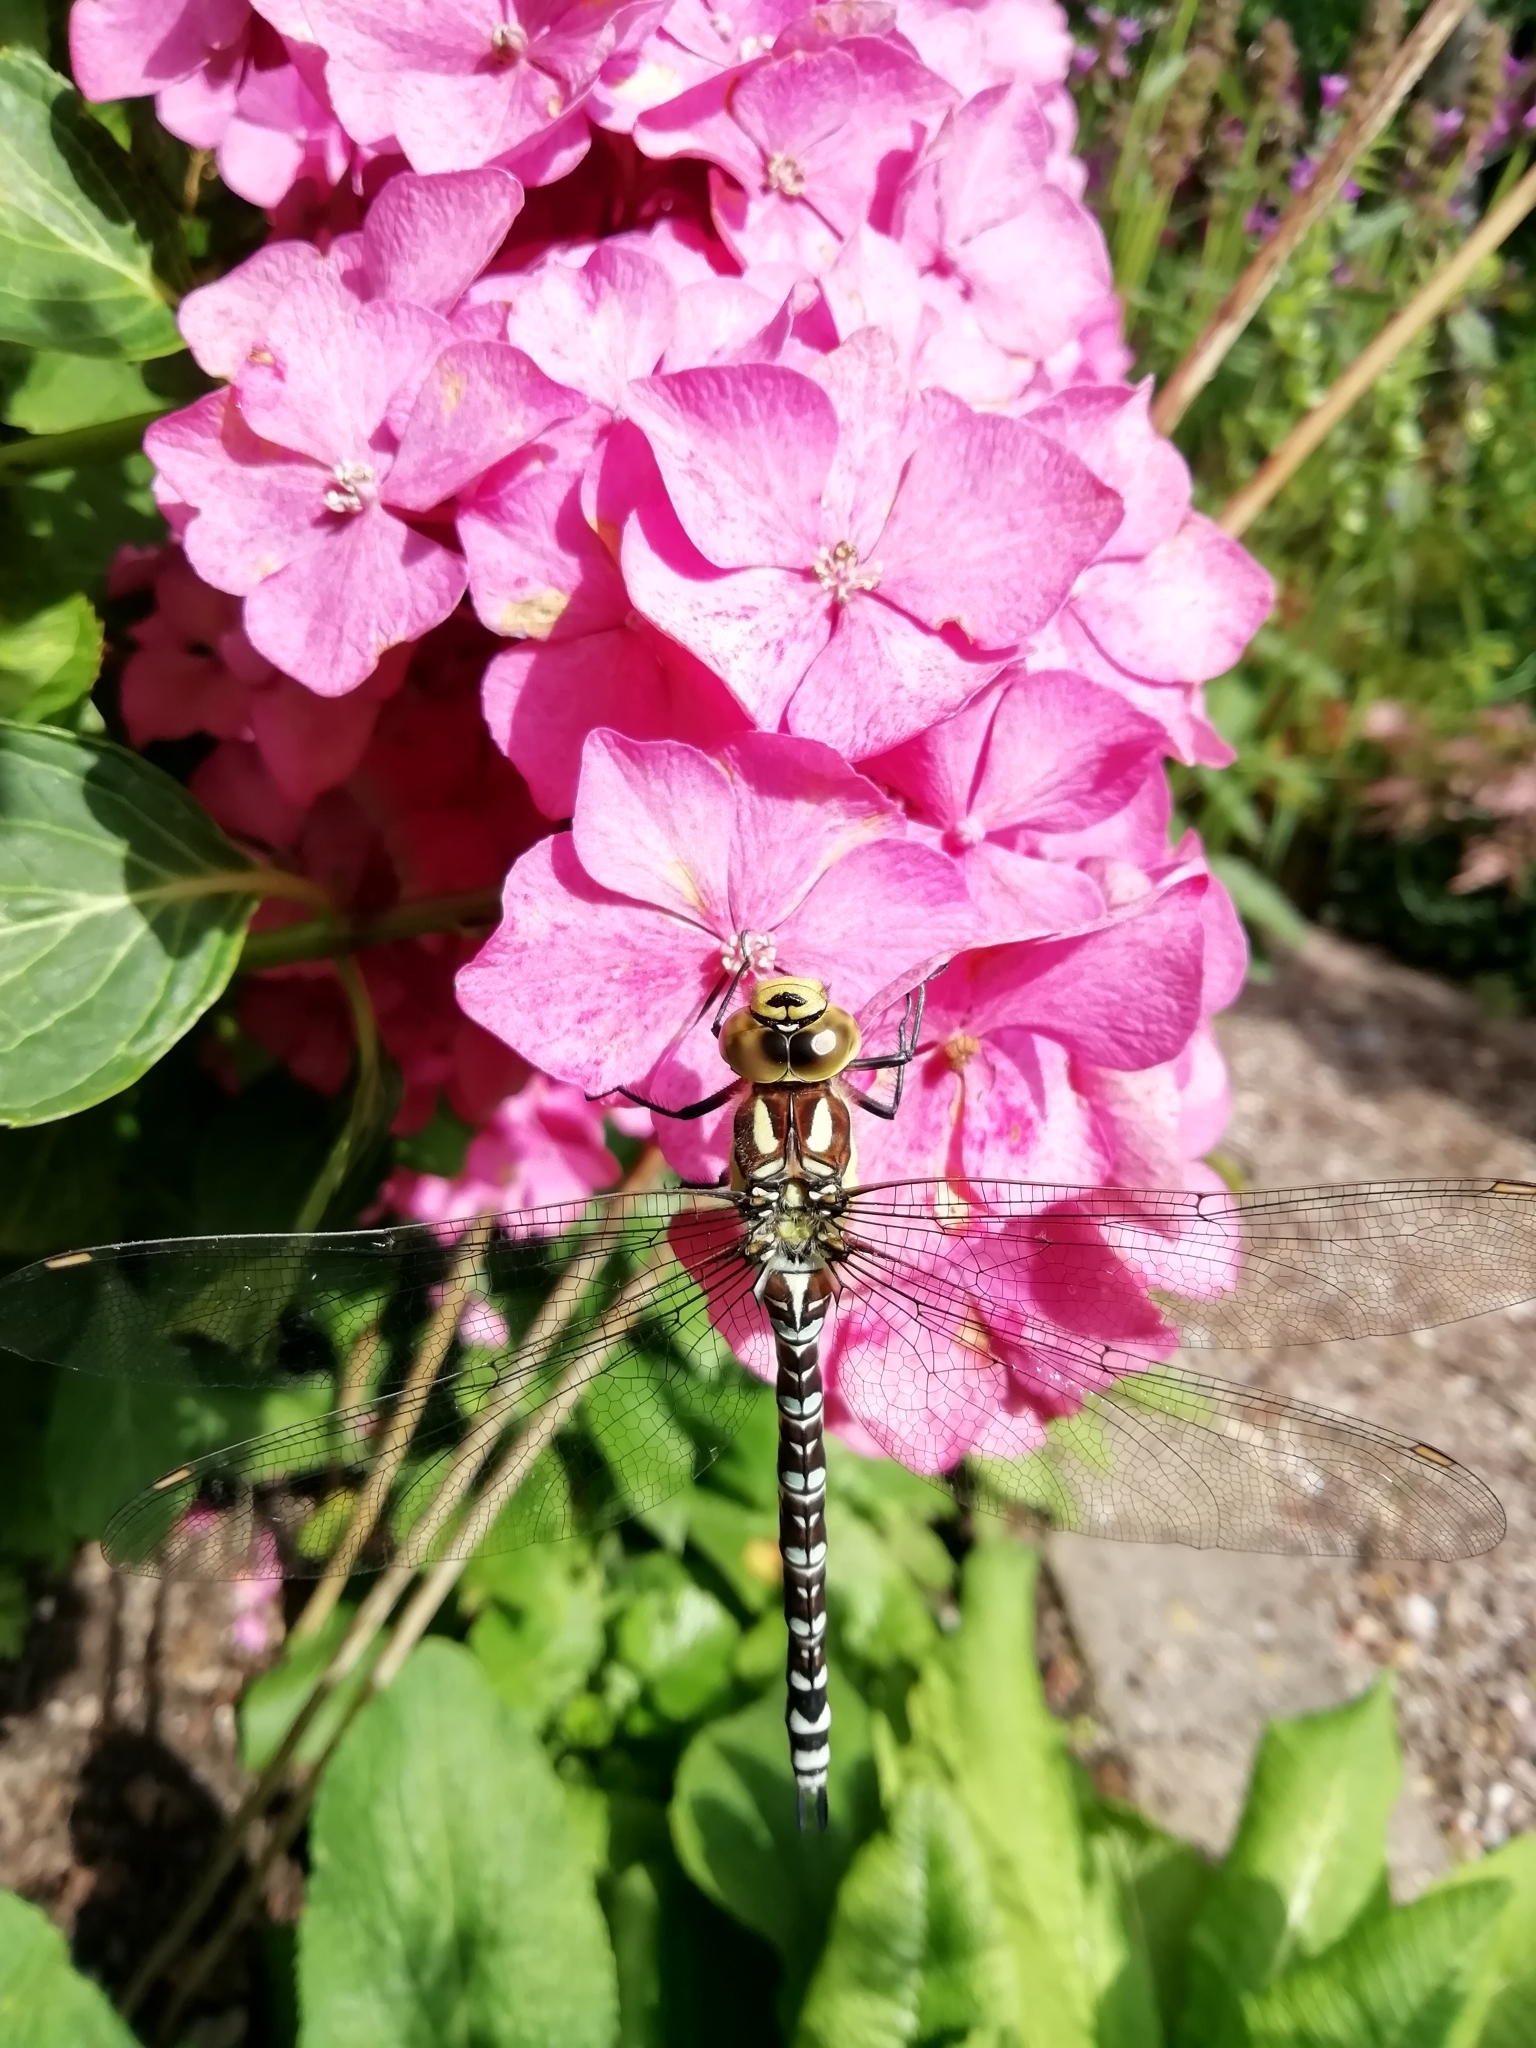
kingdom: Animalia
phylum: Arthropoda
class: Insecta
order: Odonata
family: Aeshnidae
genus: Aeshna
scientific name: Aeshna cyanea
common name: Southern hawker
